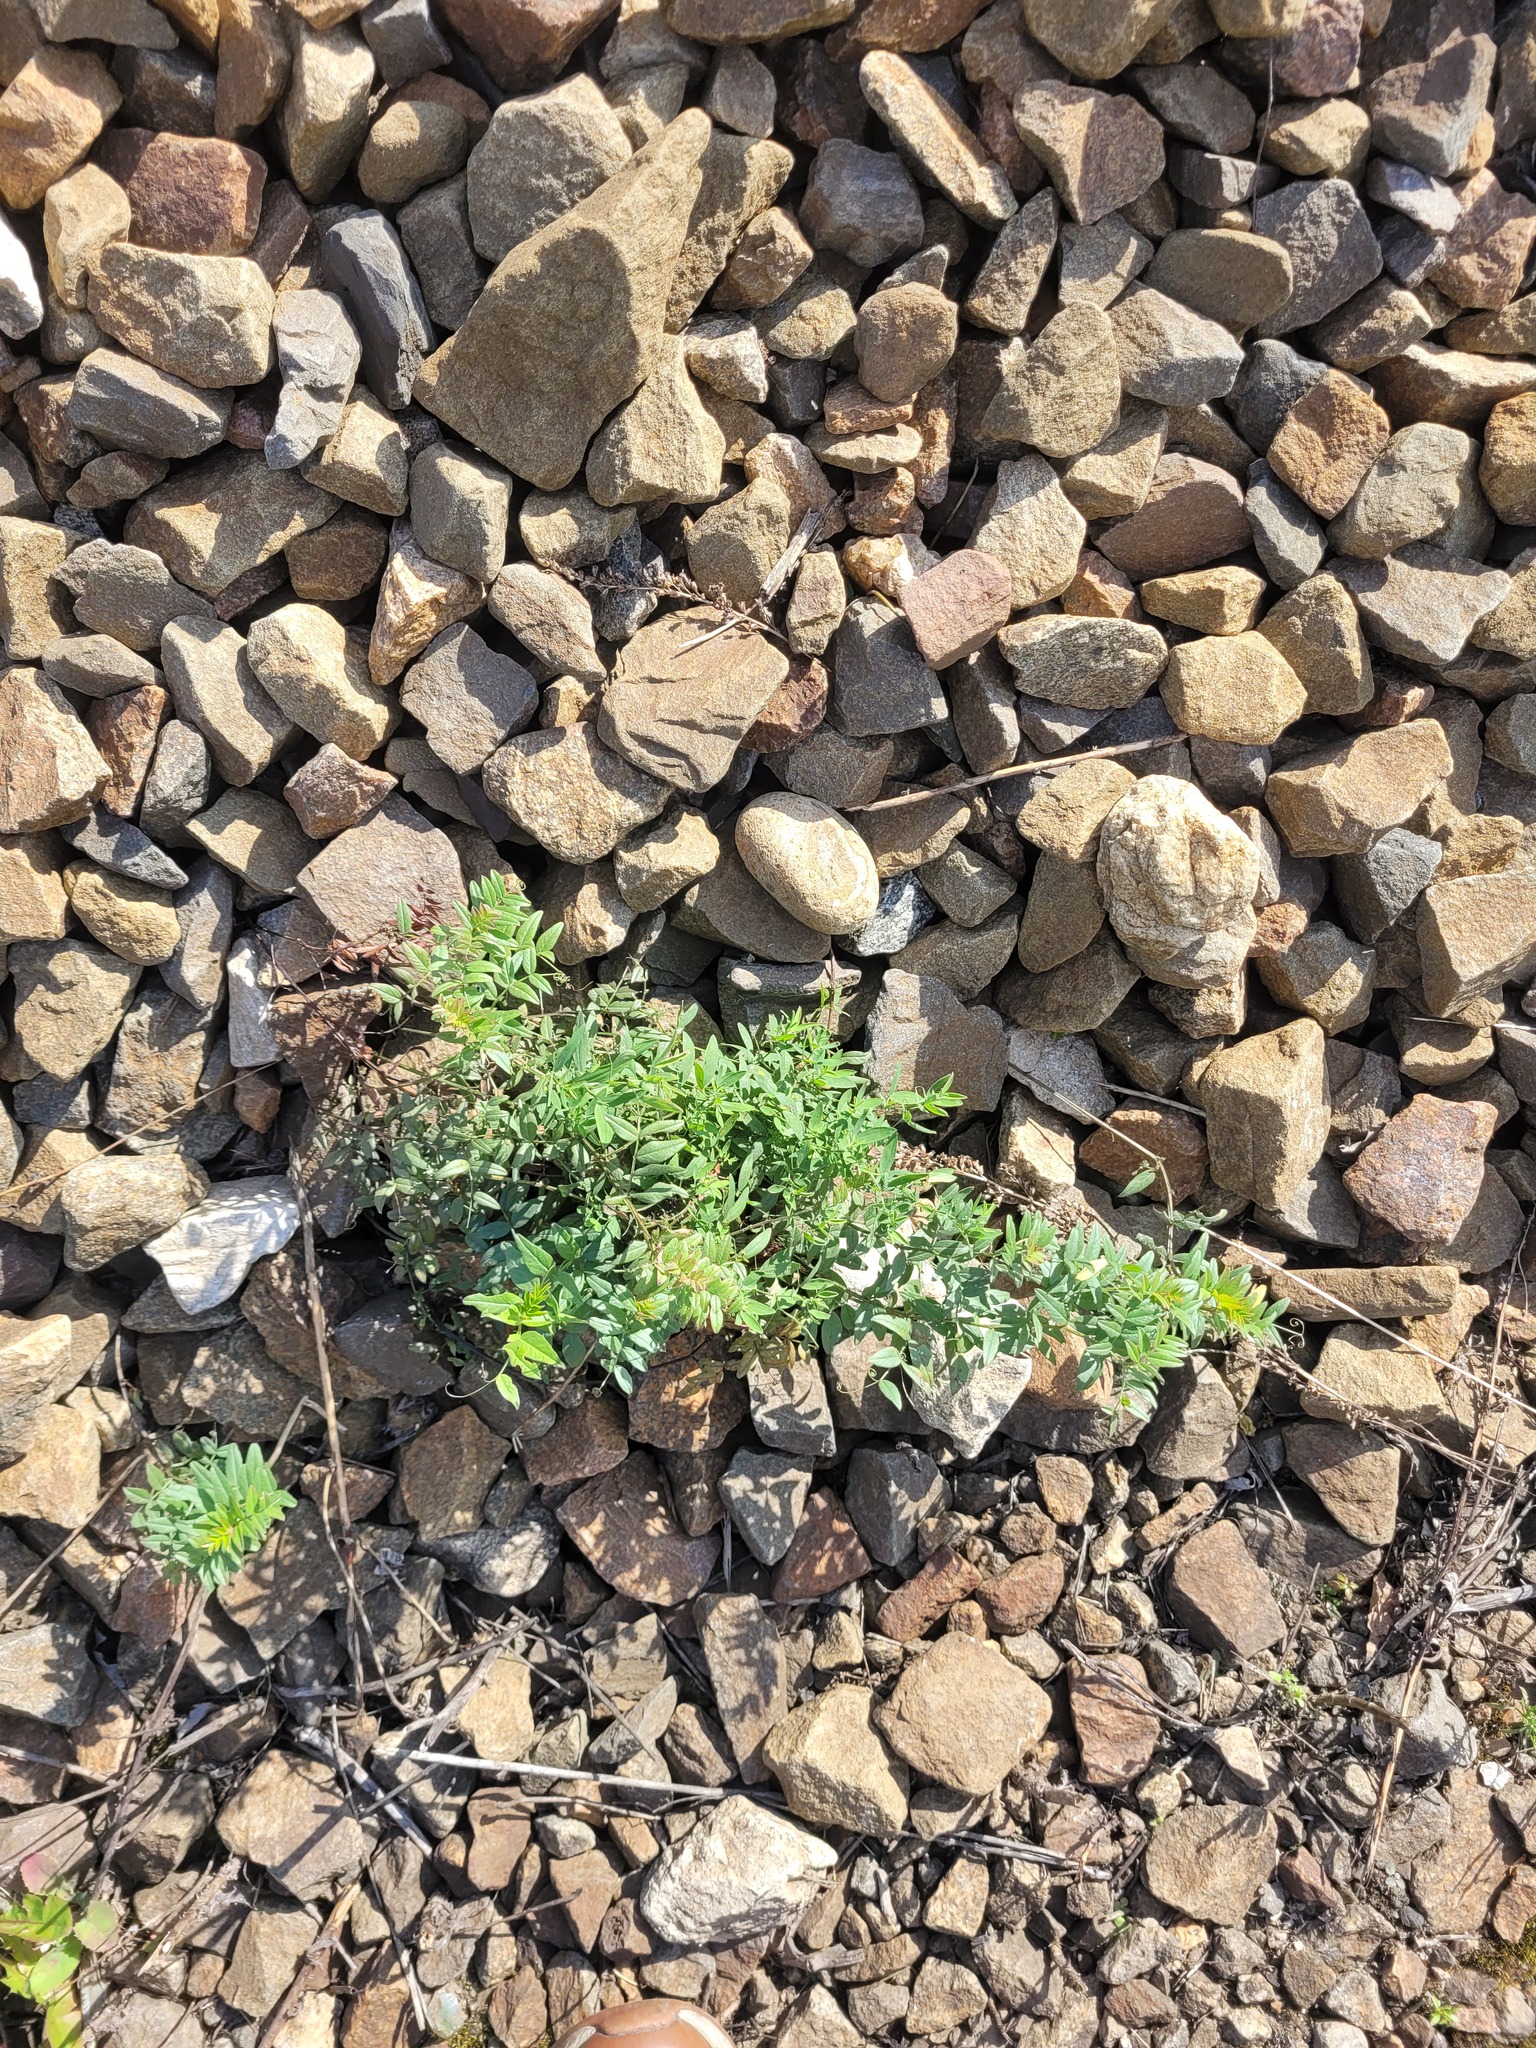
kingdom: Plantae
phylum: Tracheophyta
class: Magnoliopsida
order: Fabales
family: Fabaceae
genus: Vicia
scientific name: Vicia sepium
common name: Bush vetch
